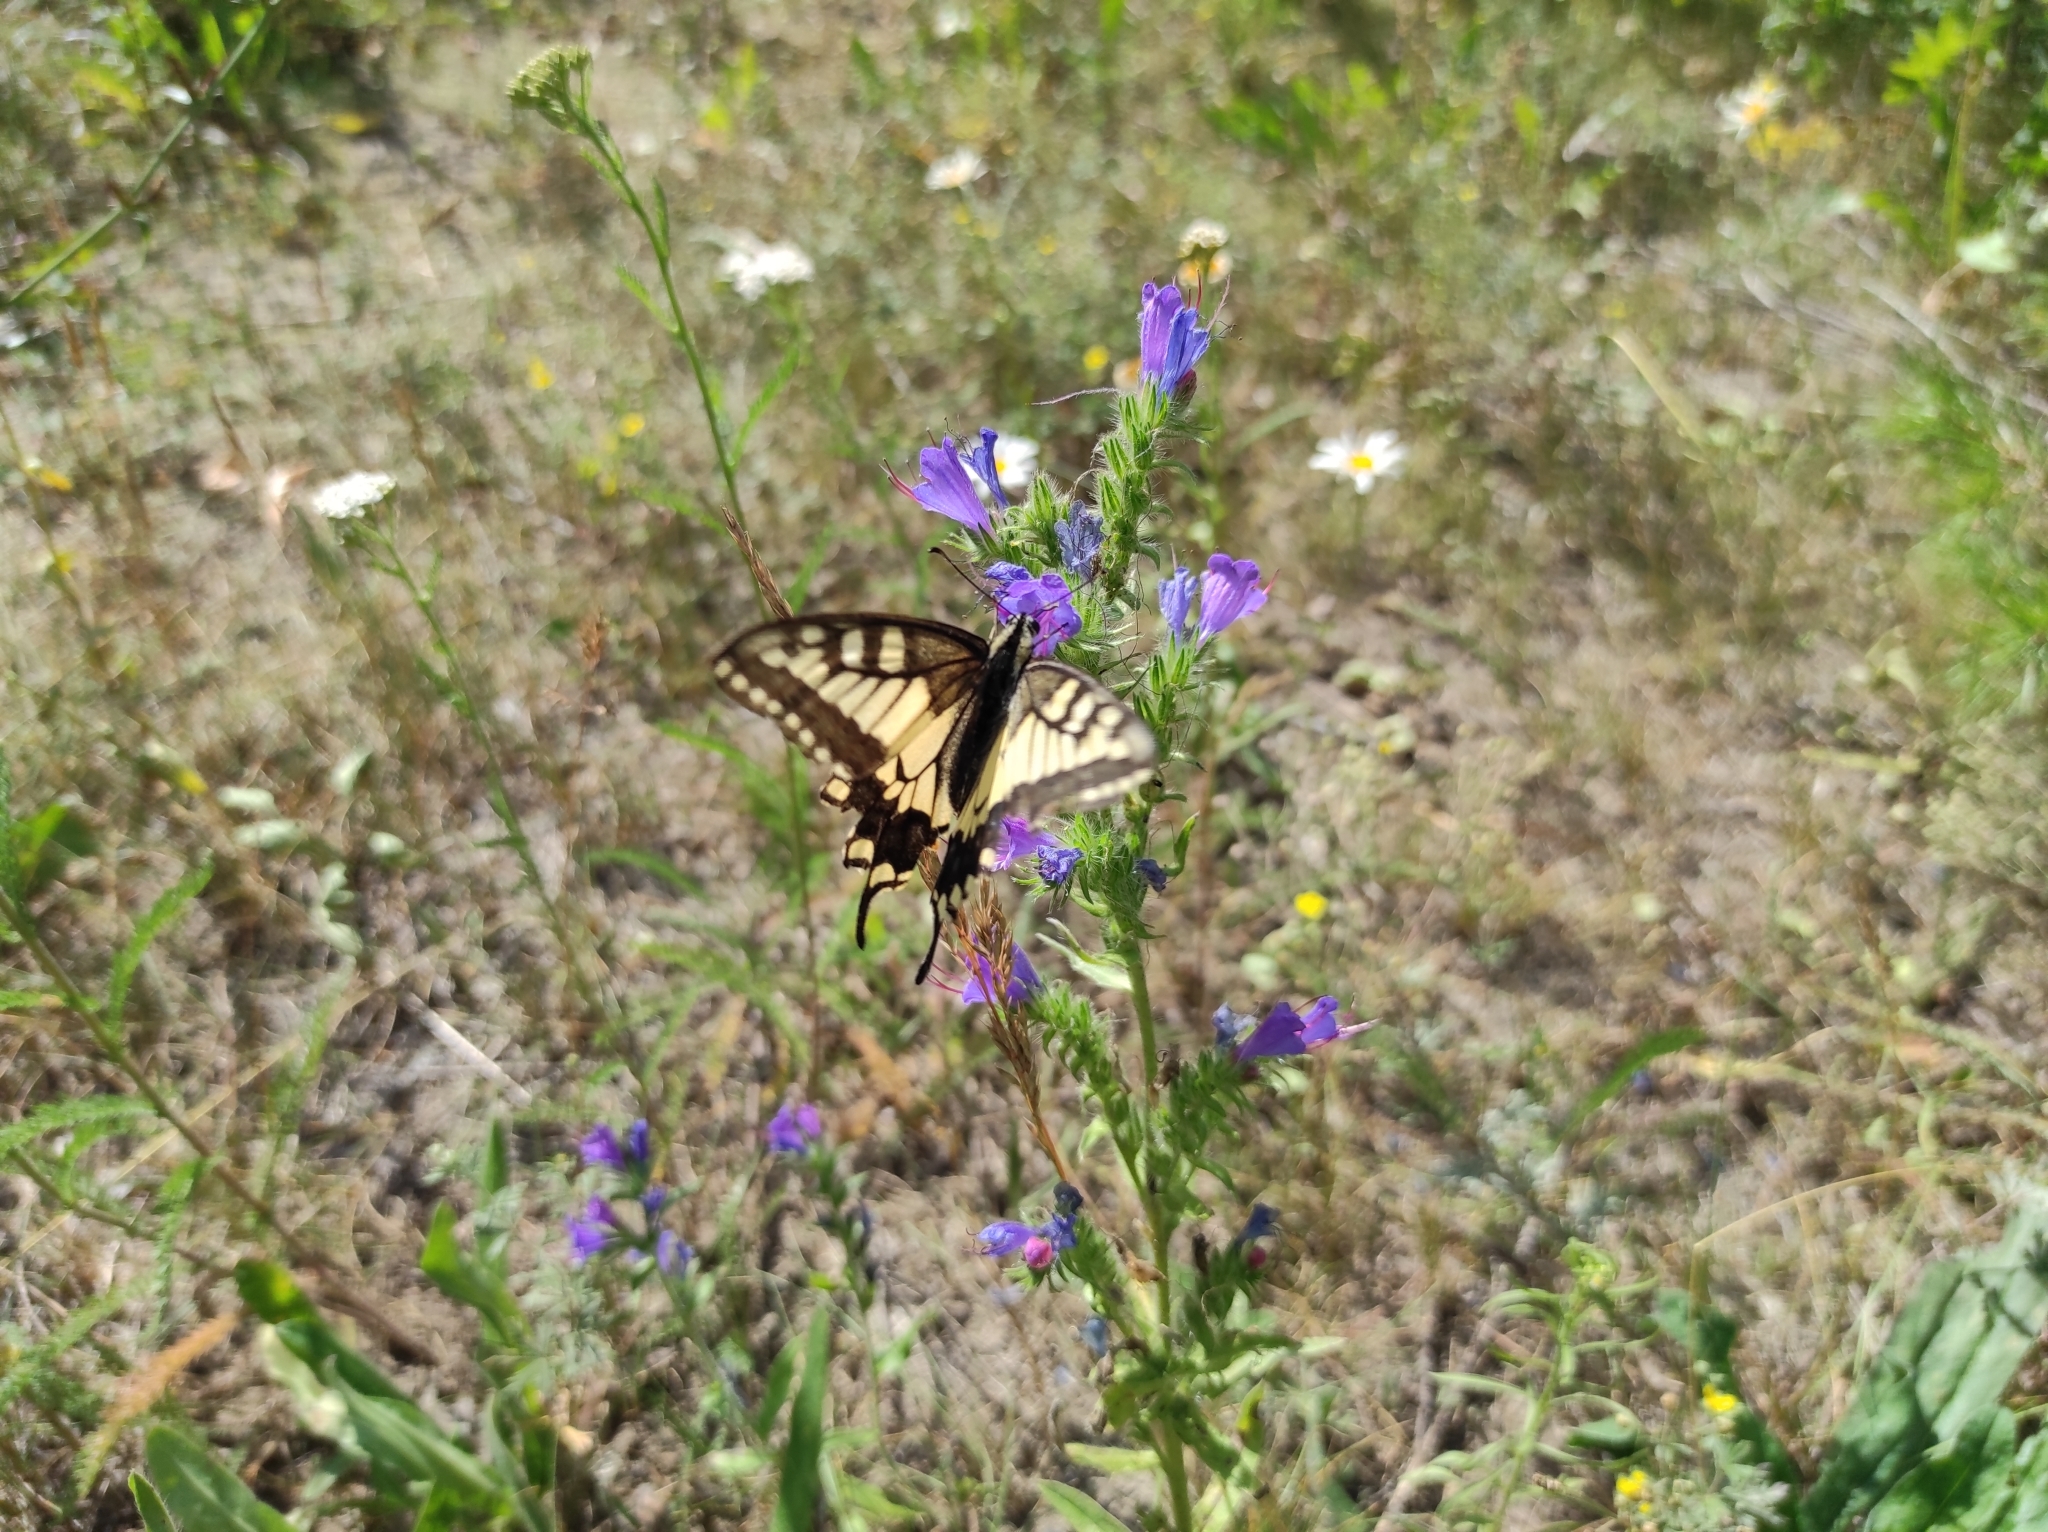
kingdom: Animalia
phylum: Arthropoda
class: Insecta
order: Lepidoptera
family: Papilionidae
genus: Papilio
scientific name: Papilio machaon
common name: Swallowtail
